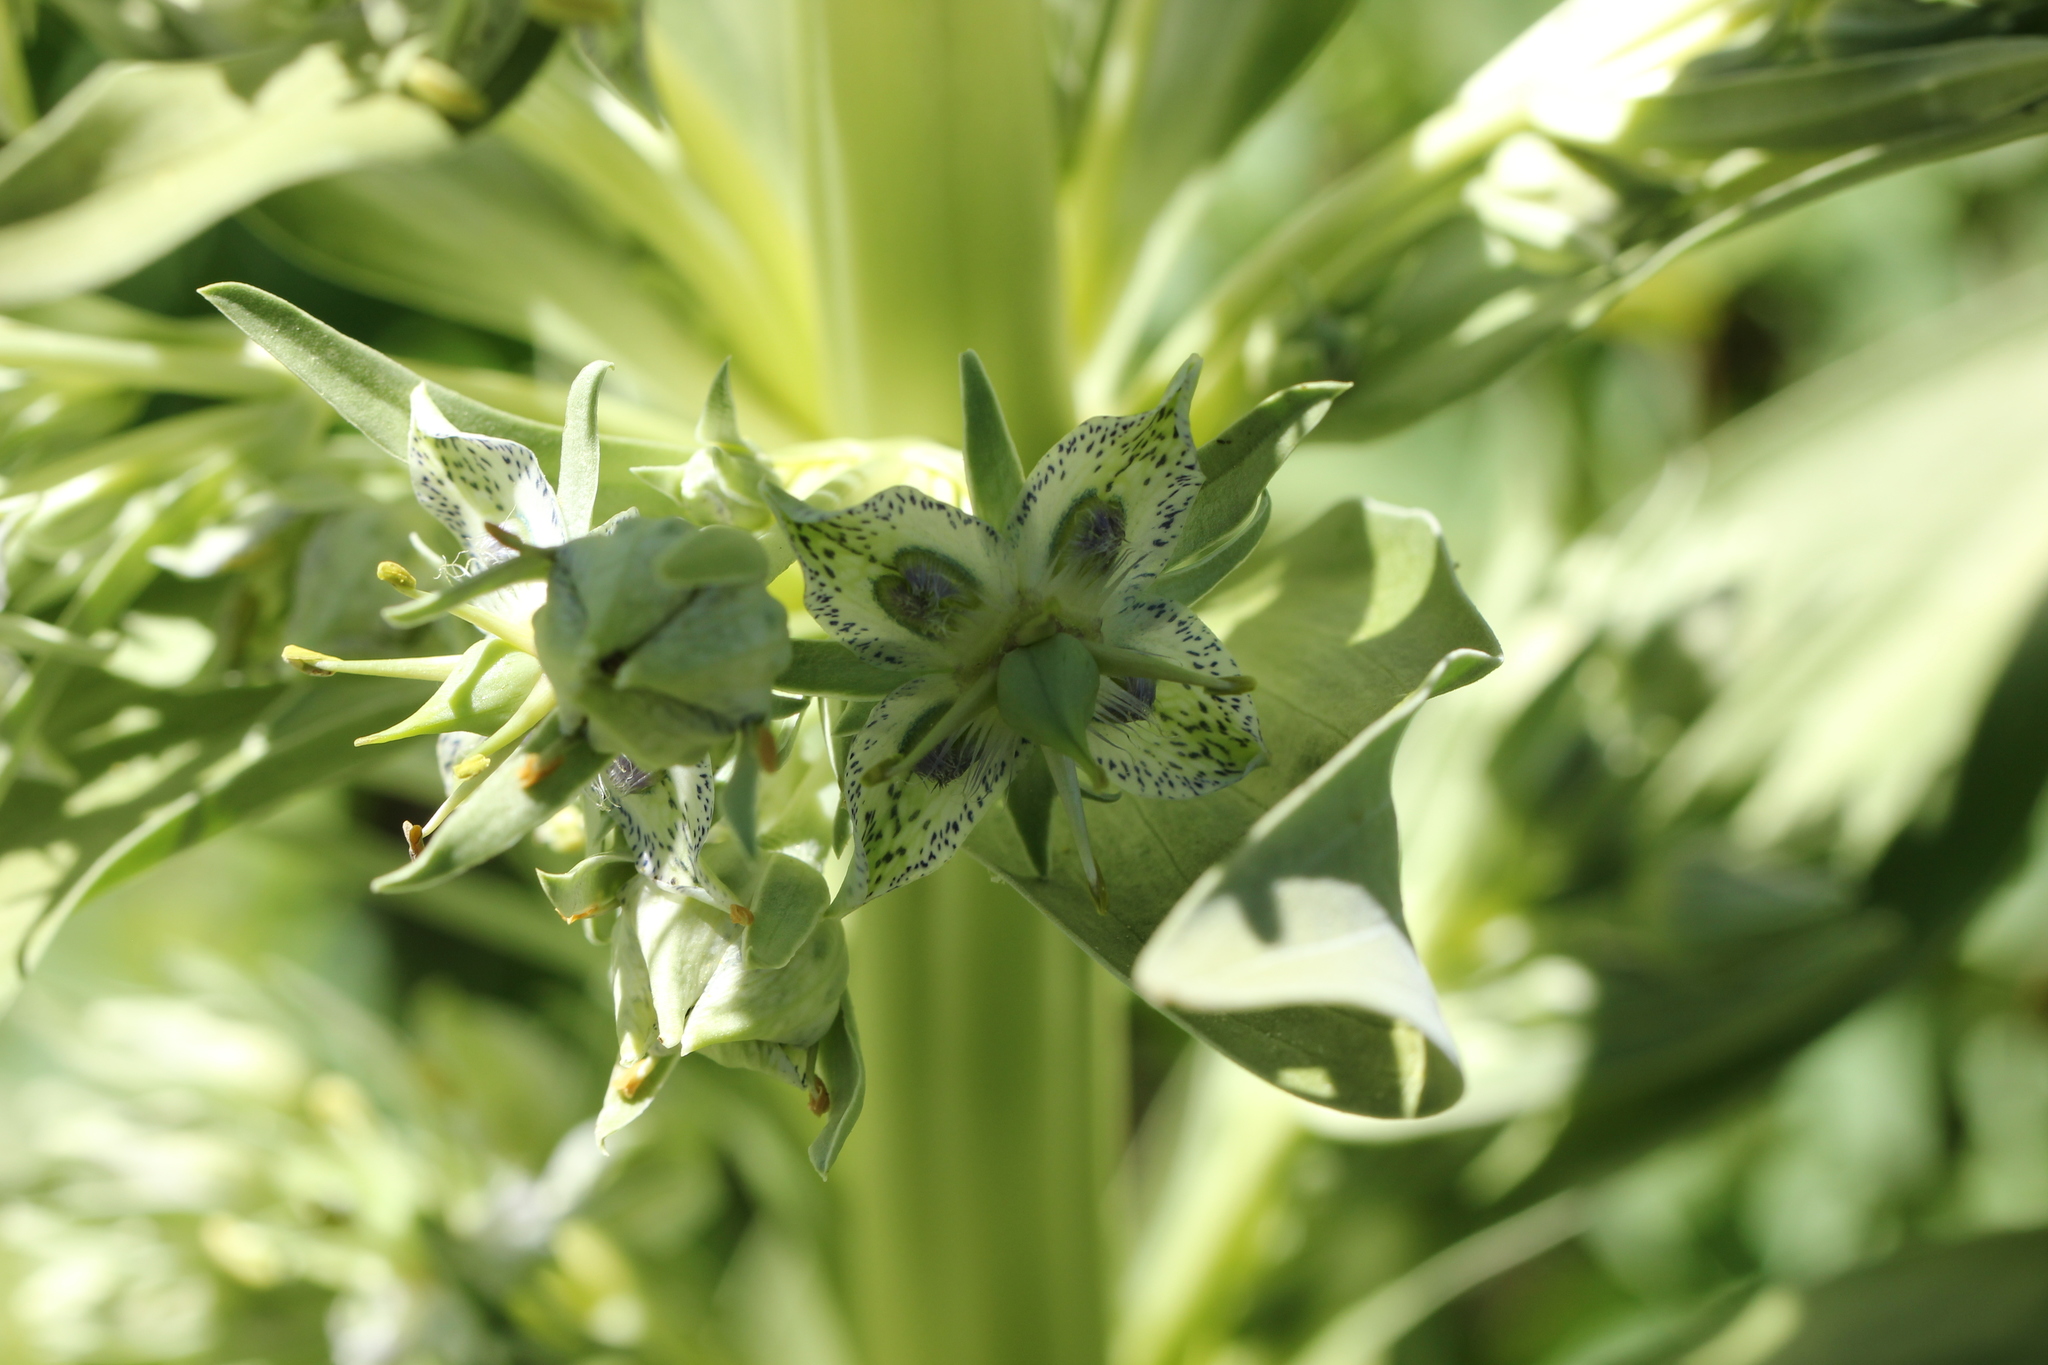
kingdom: Plantae
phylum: Tracheophyta
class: Magnoliopsida
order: Gentianales
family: Gentianaceae
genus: Frasera
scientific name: Frasera speciosa
